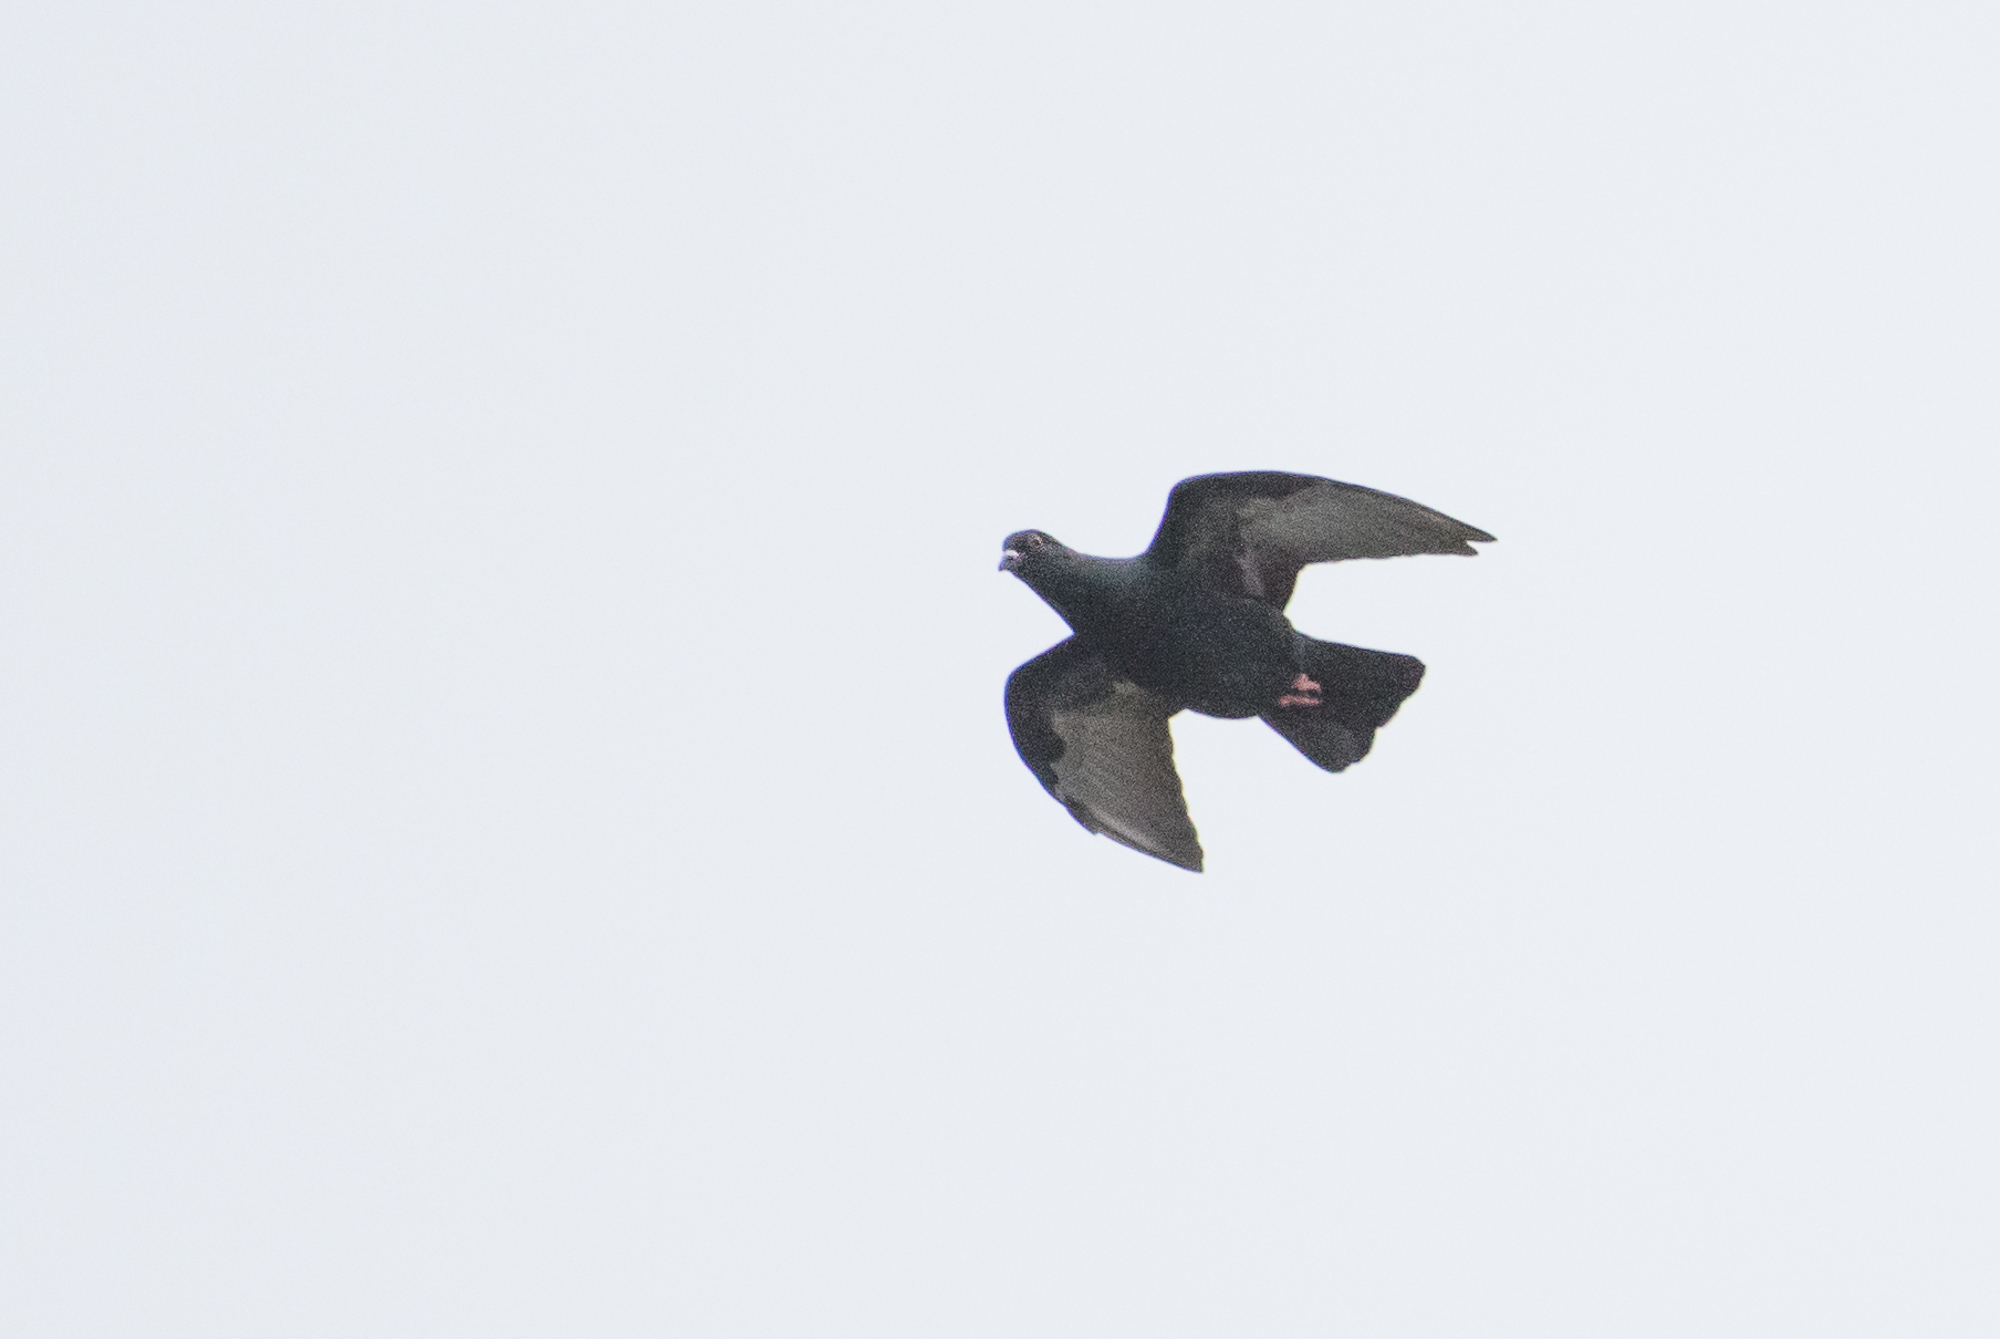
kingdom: Animalia
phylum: Chordata
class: Aves
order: Columbiformes
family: Columbidae
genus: Columba
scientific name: Columba livia
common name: Rock pigeon
